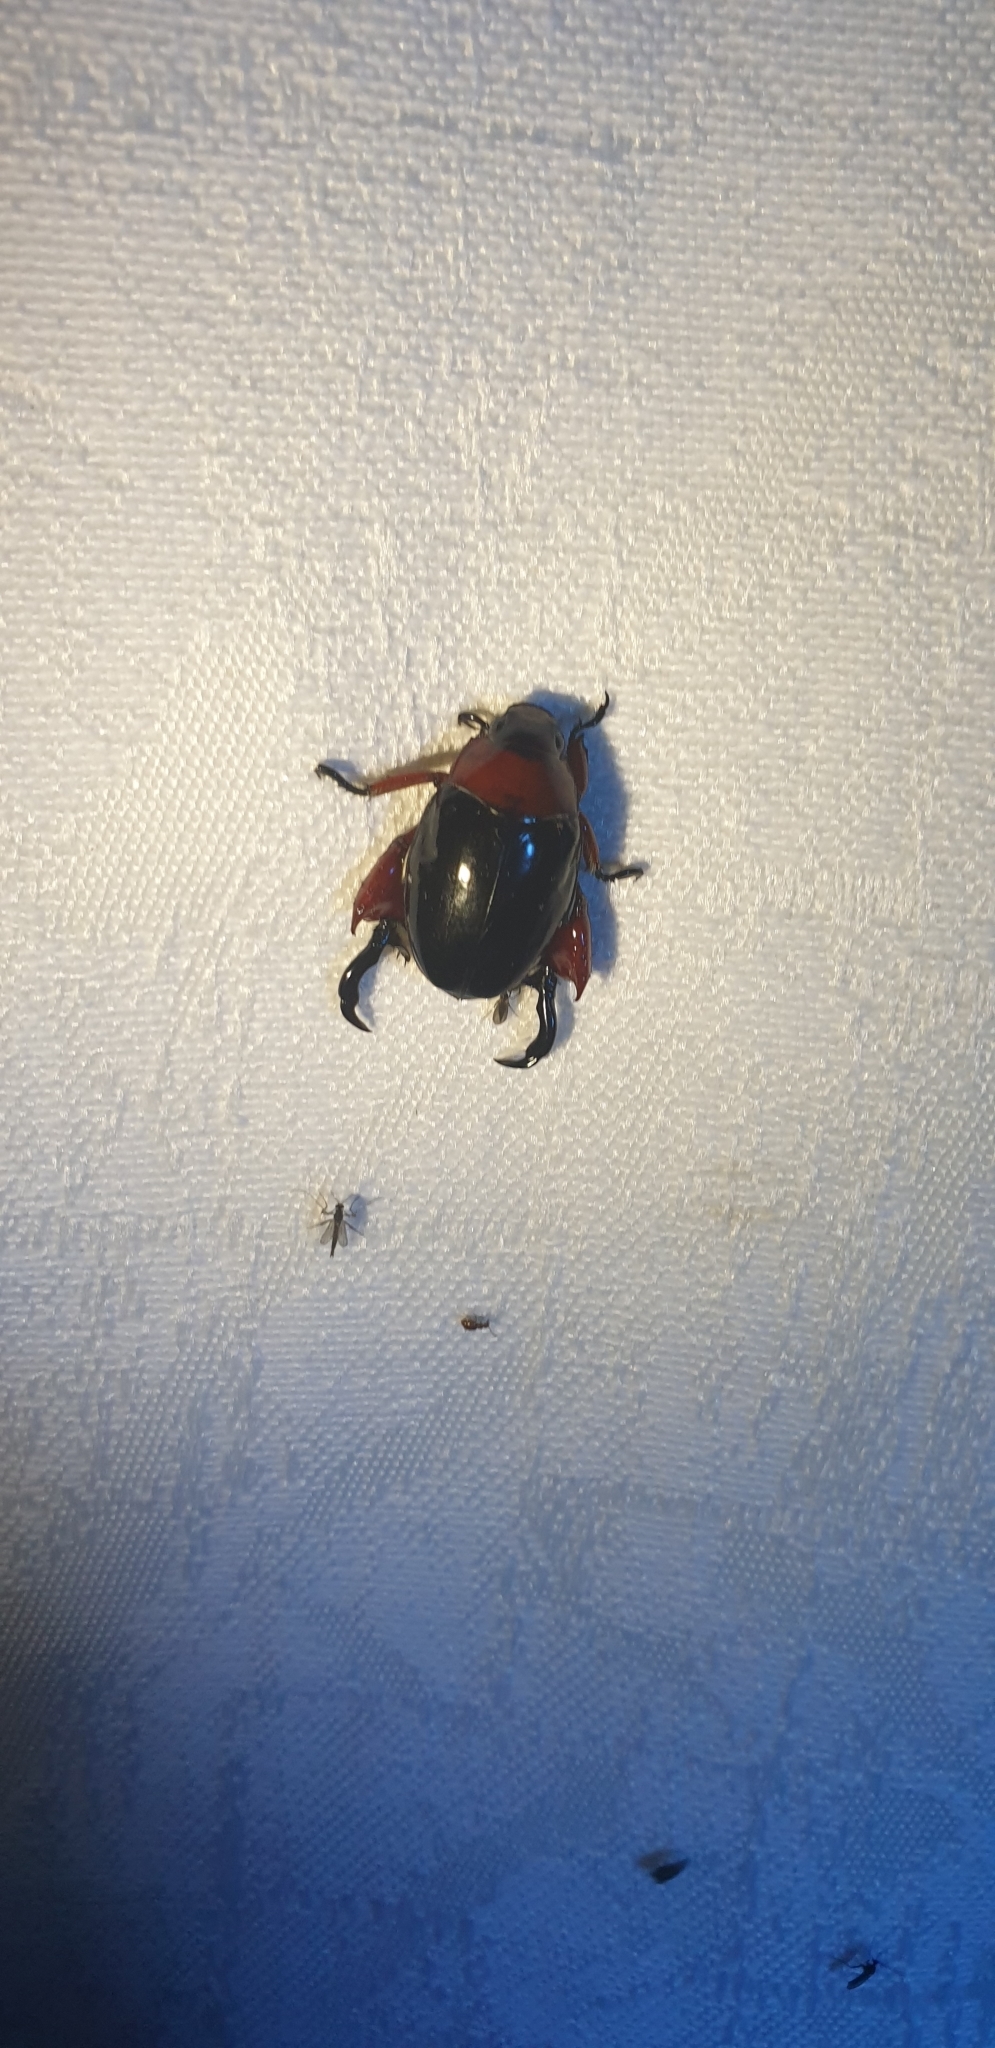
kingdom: Animalia
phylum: Arthropoda
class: Insecta
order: Coleoptera
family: Scarabaeidae
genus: Repsimus
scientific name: Repsimus manicatus
